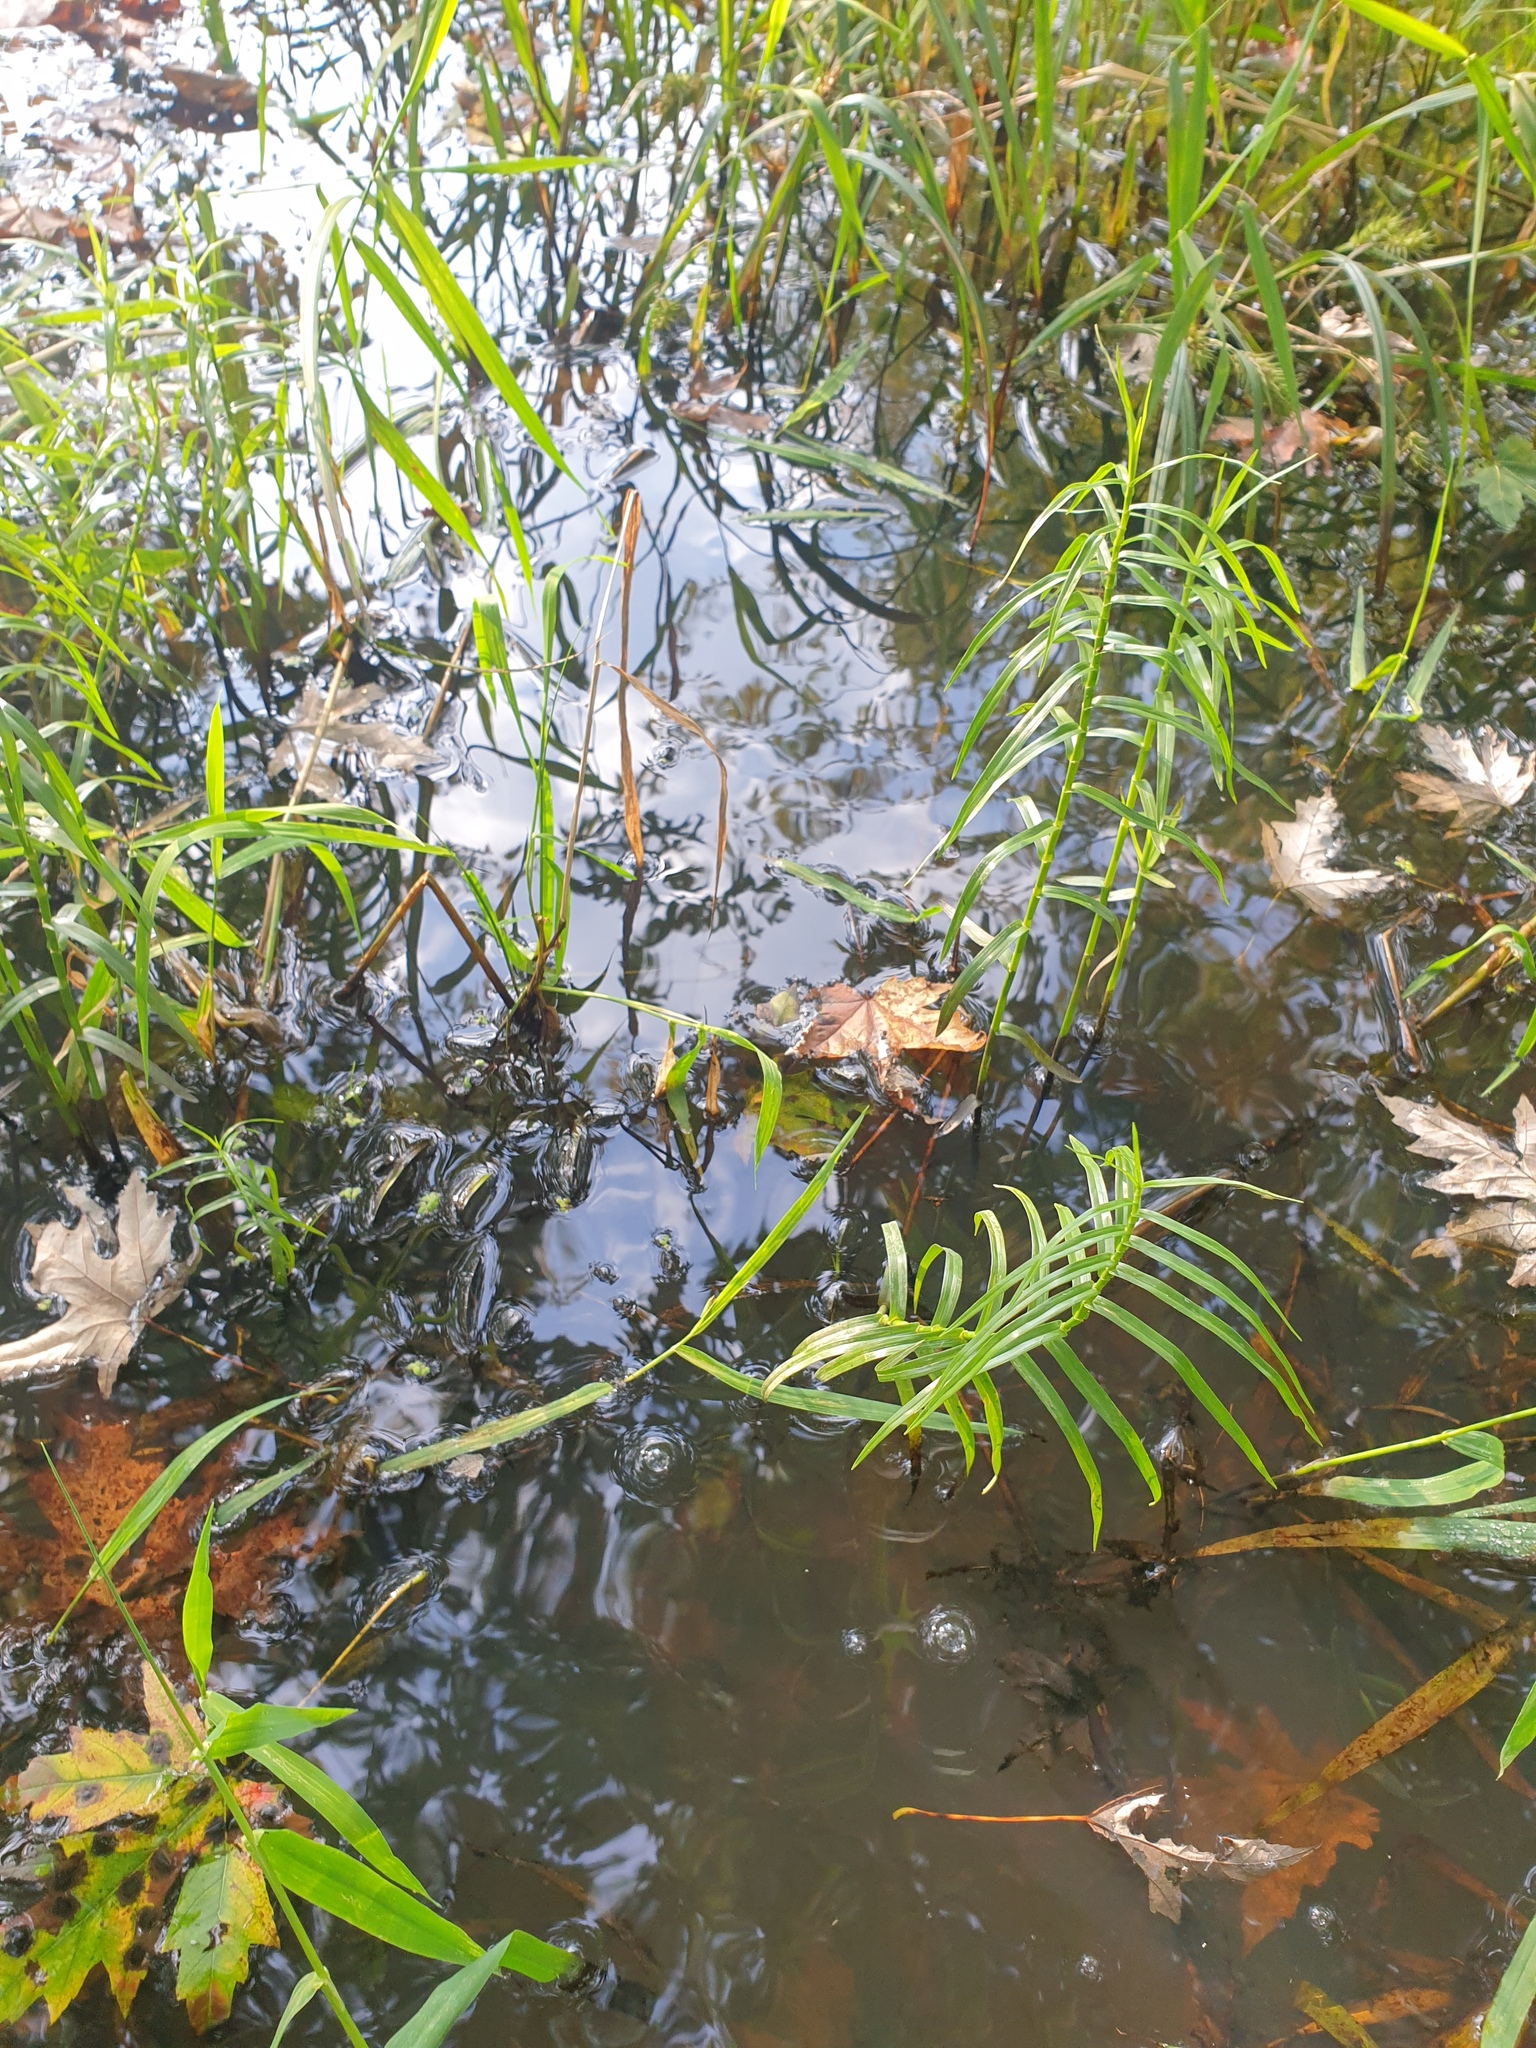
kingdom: Plantae
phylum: Tracheophyta
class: Liliopsida
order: Poales
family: Cyperaceae
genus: Dulichium
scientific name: Dulichium arundinaceum
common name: Three-way sedge
